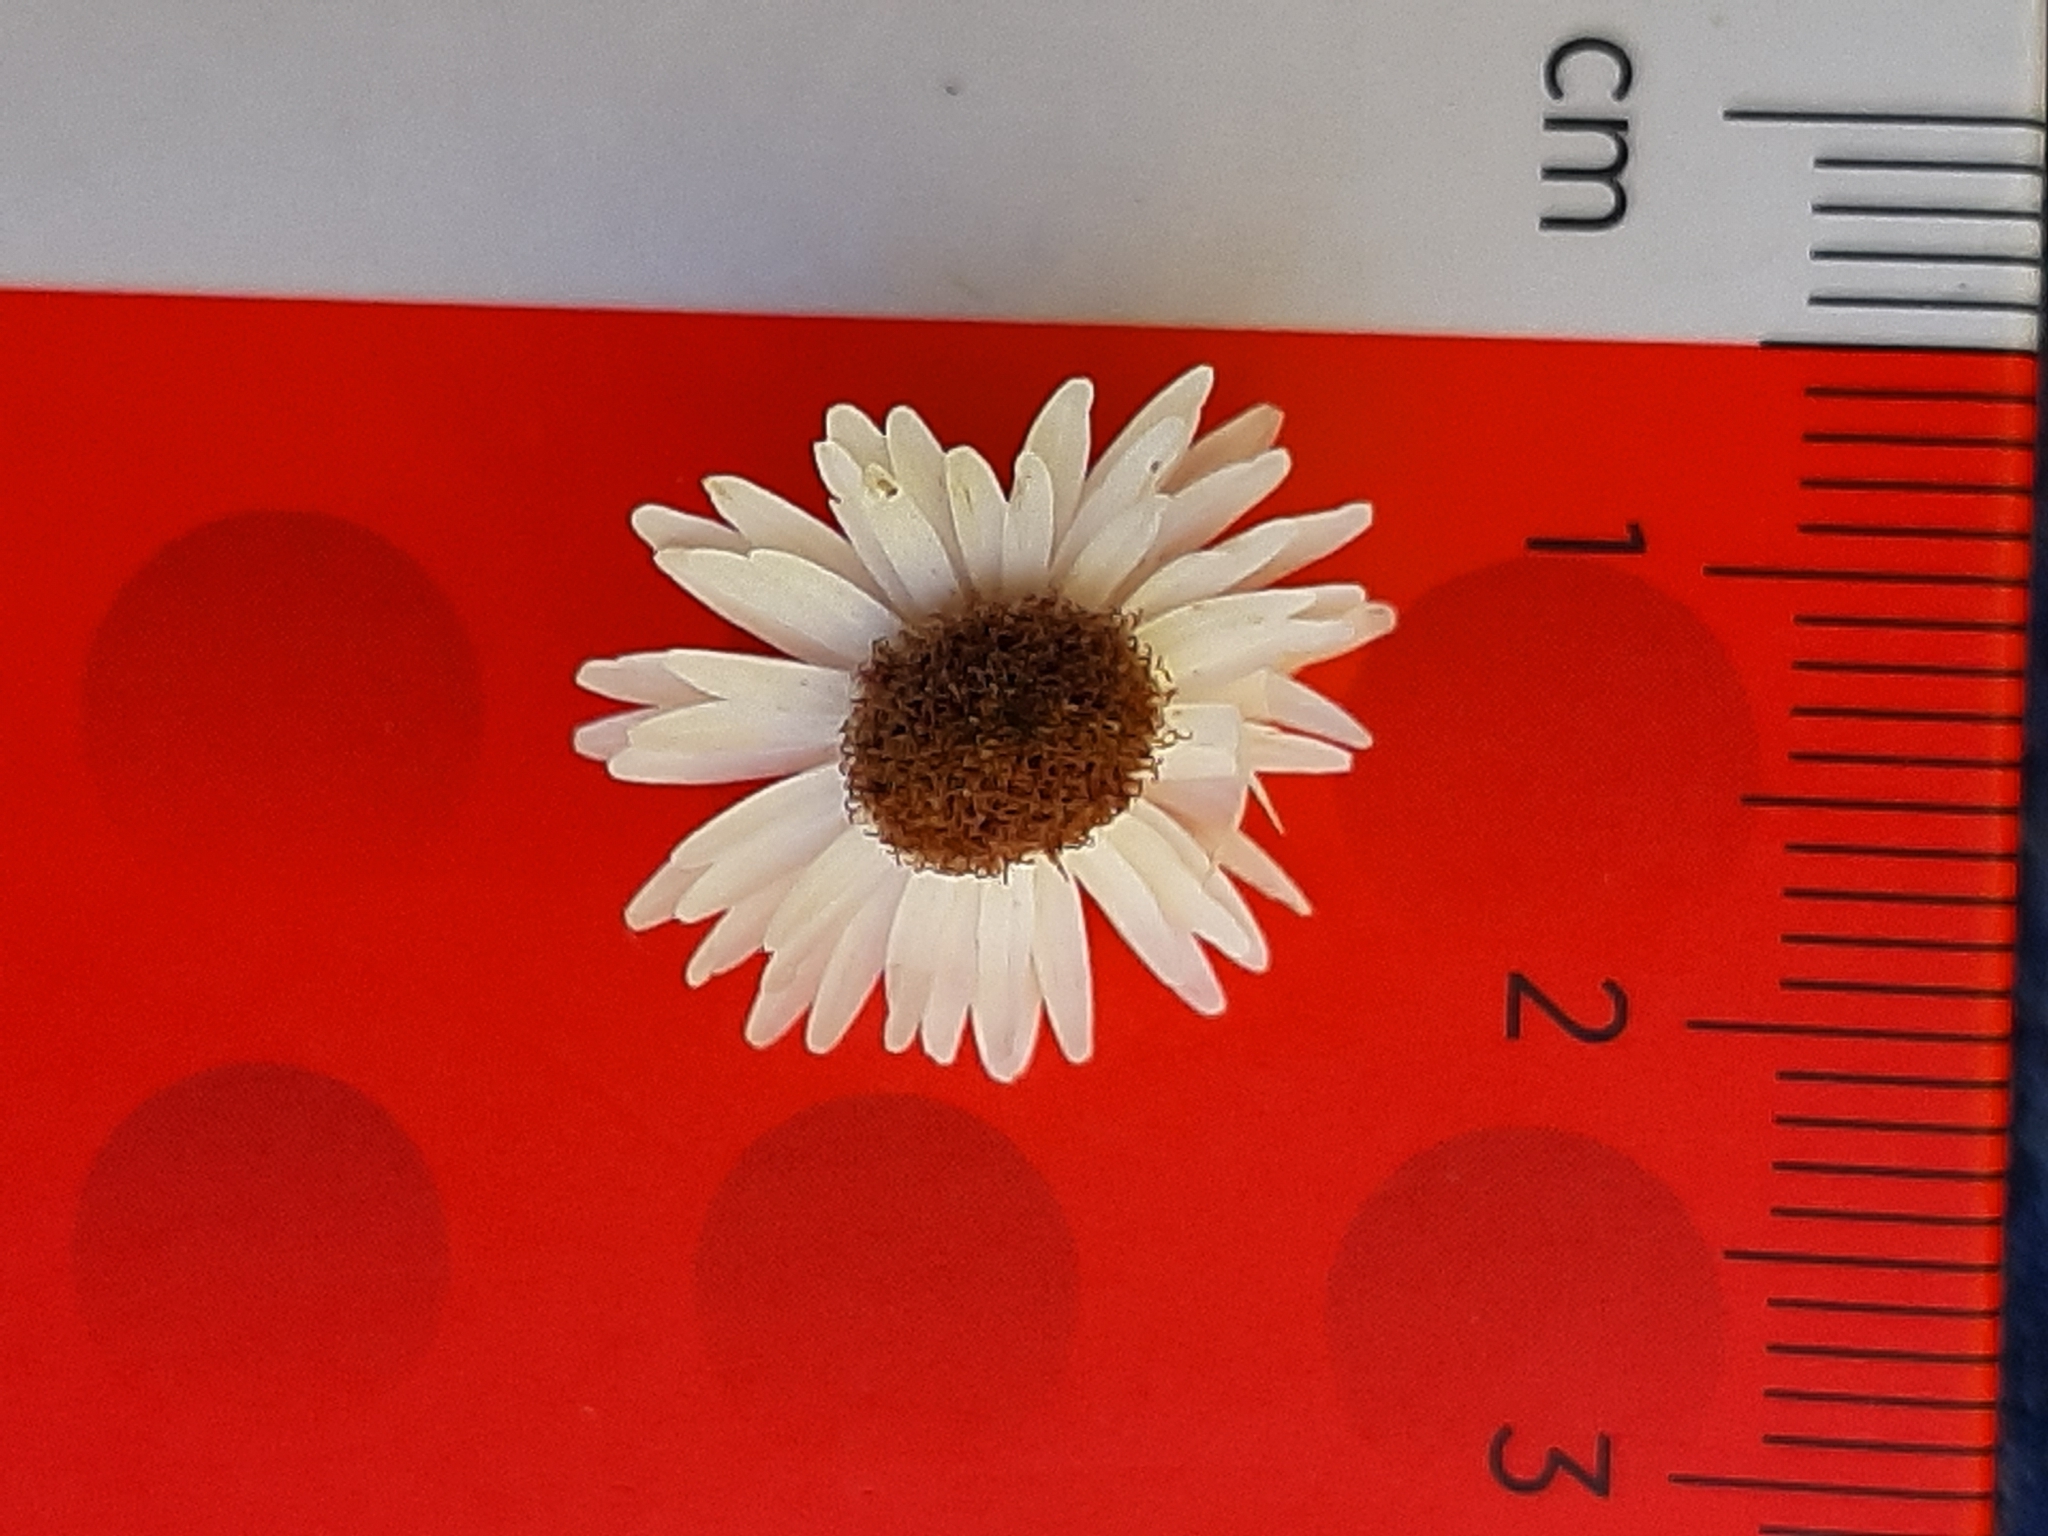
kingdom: Plantae
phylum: Tracheophyta
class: Magnoliopsida
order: Asterales
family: Asteraceae
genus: Anaphalioides
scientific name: Anaphalioides bellidioides
